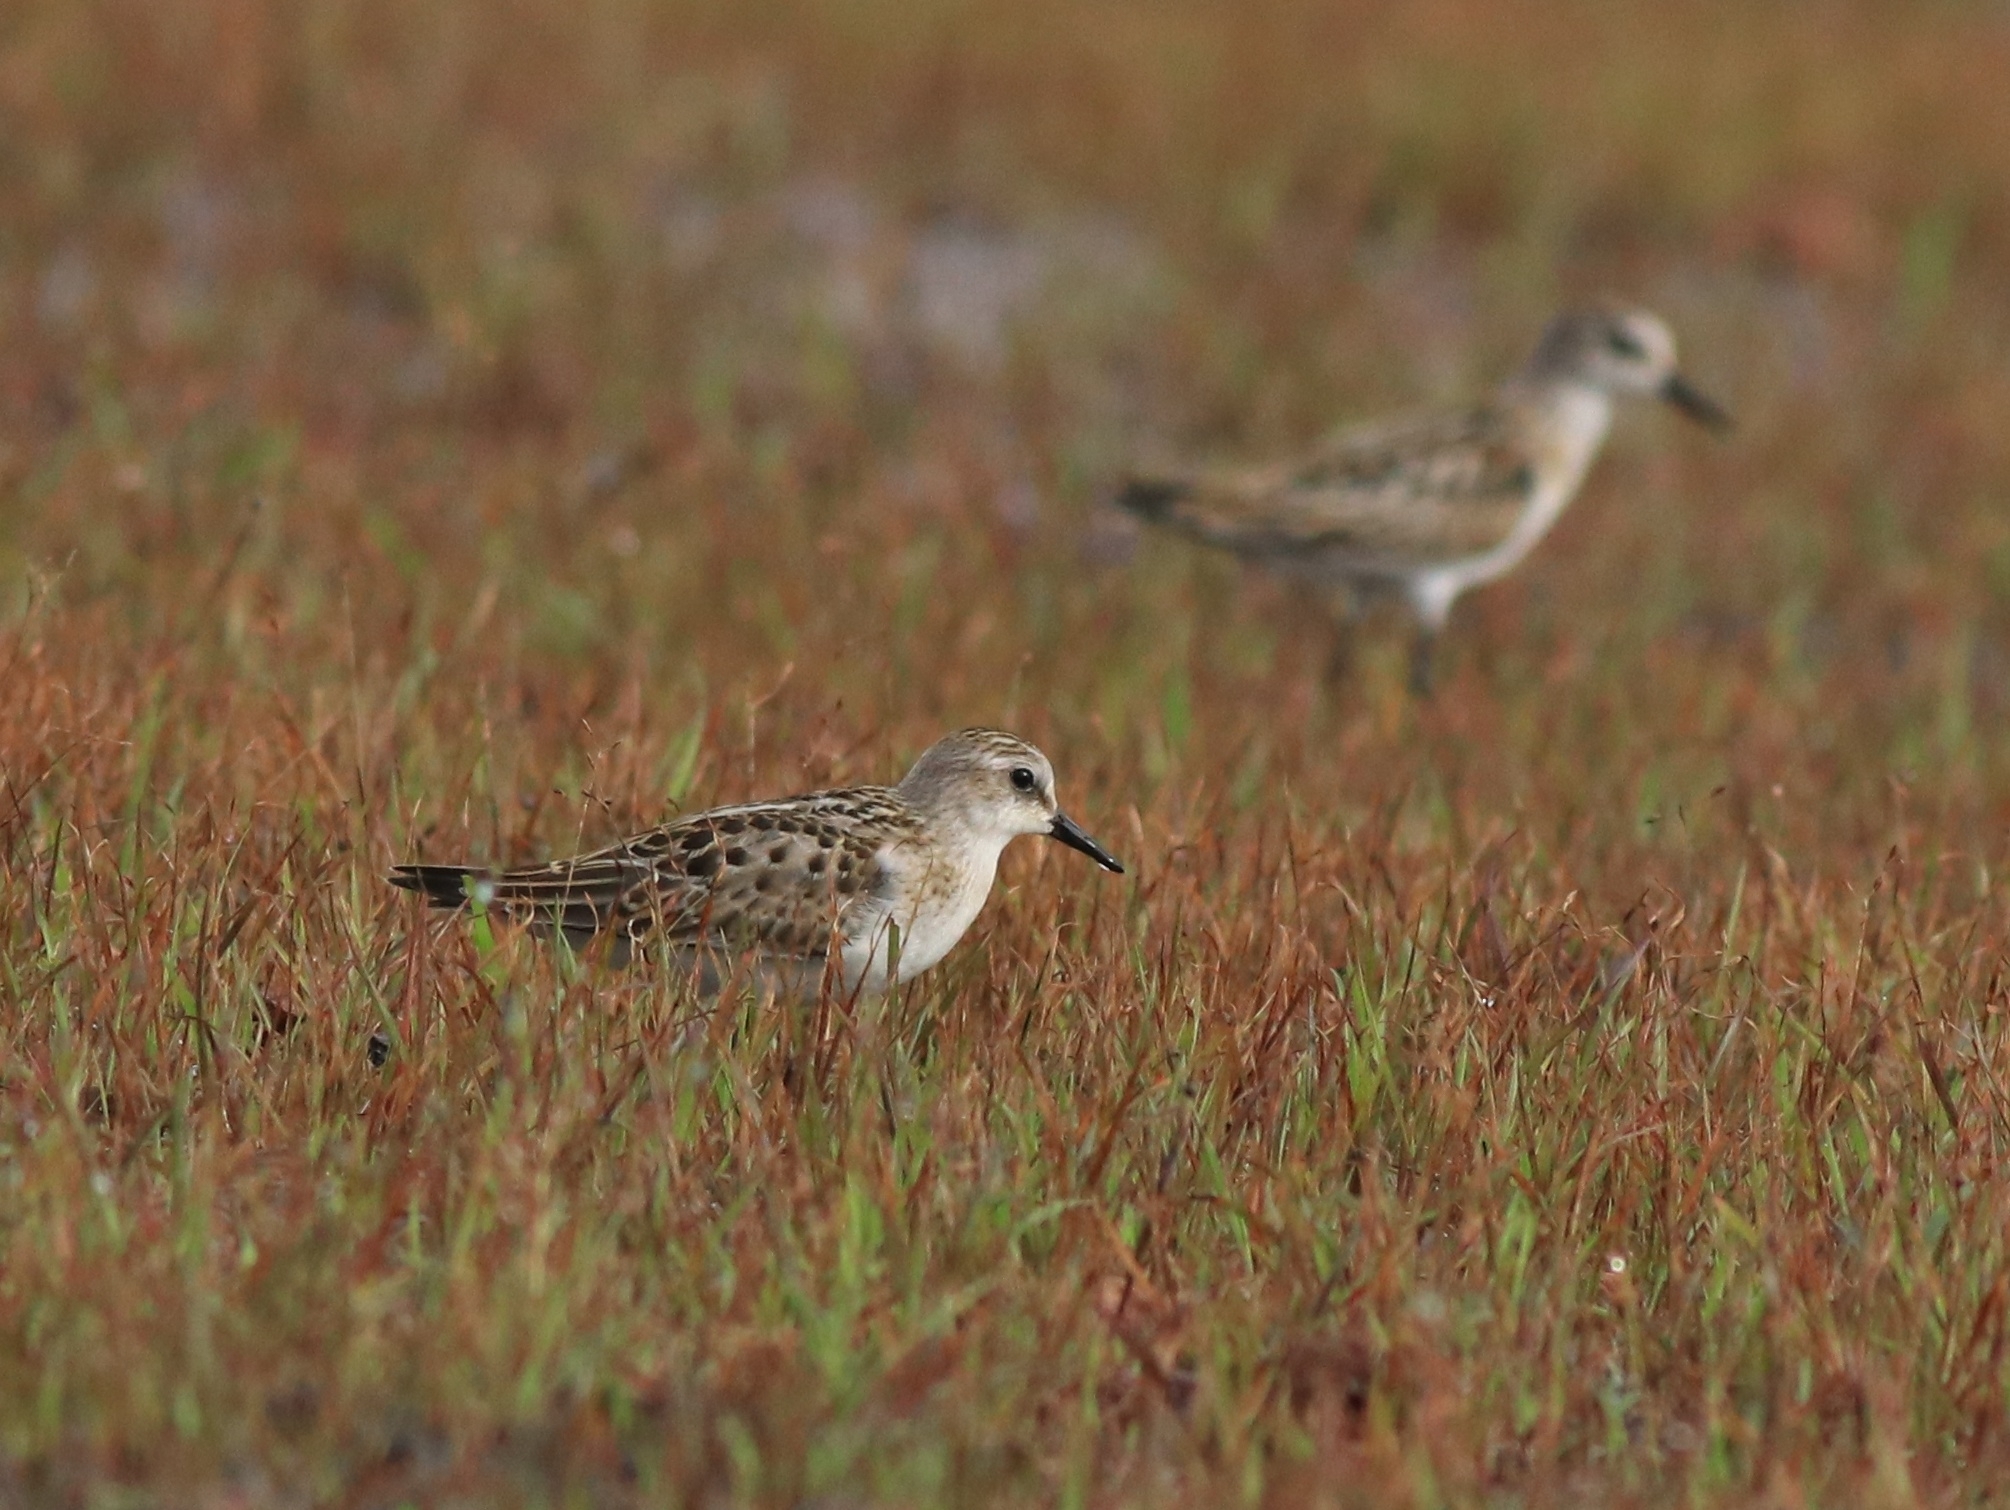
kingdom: Animalia
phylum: Chordata
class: Aves
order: Charadriiformes
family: Scolopacidae
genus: Calidris
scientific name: Calidris minuta
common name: Little stint
